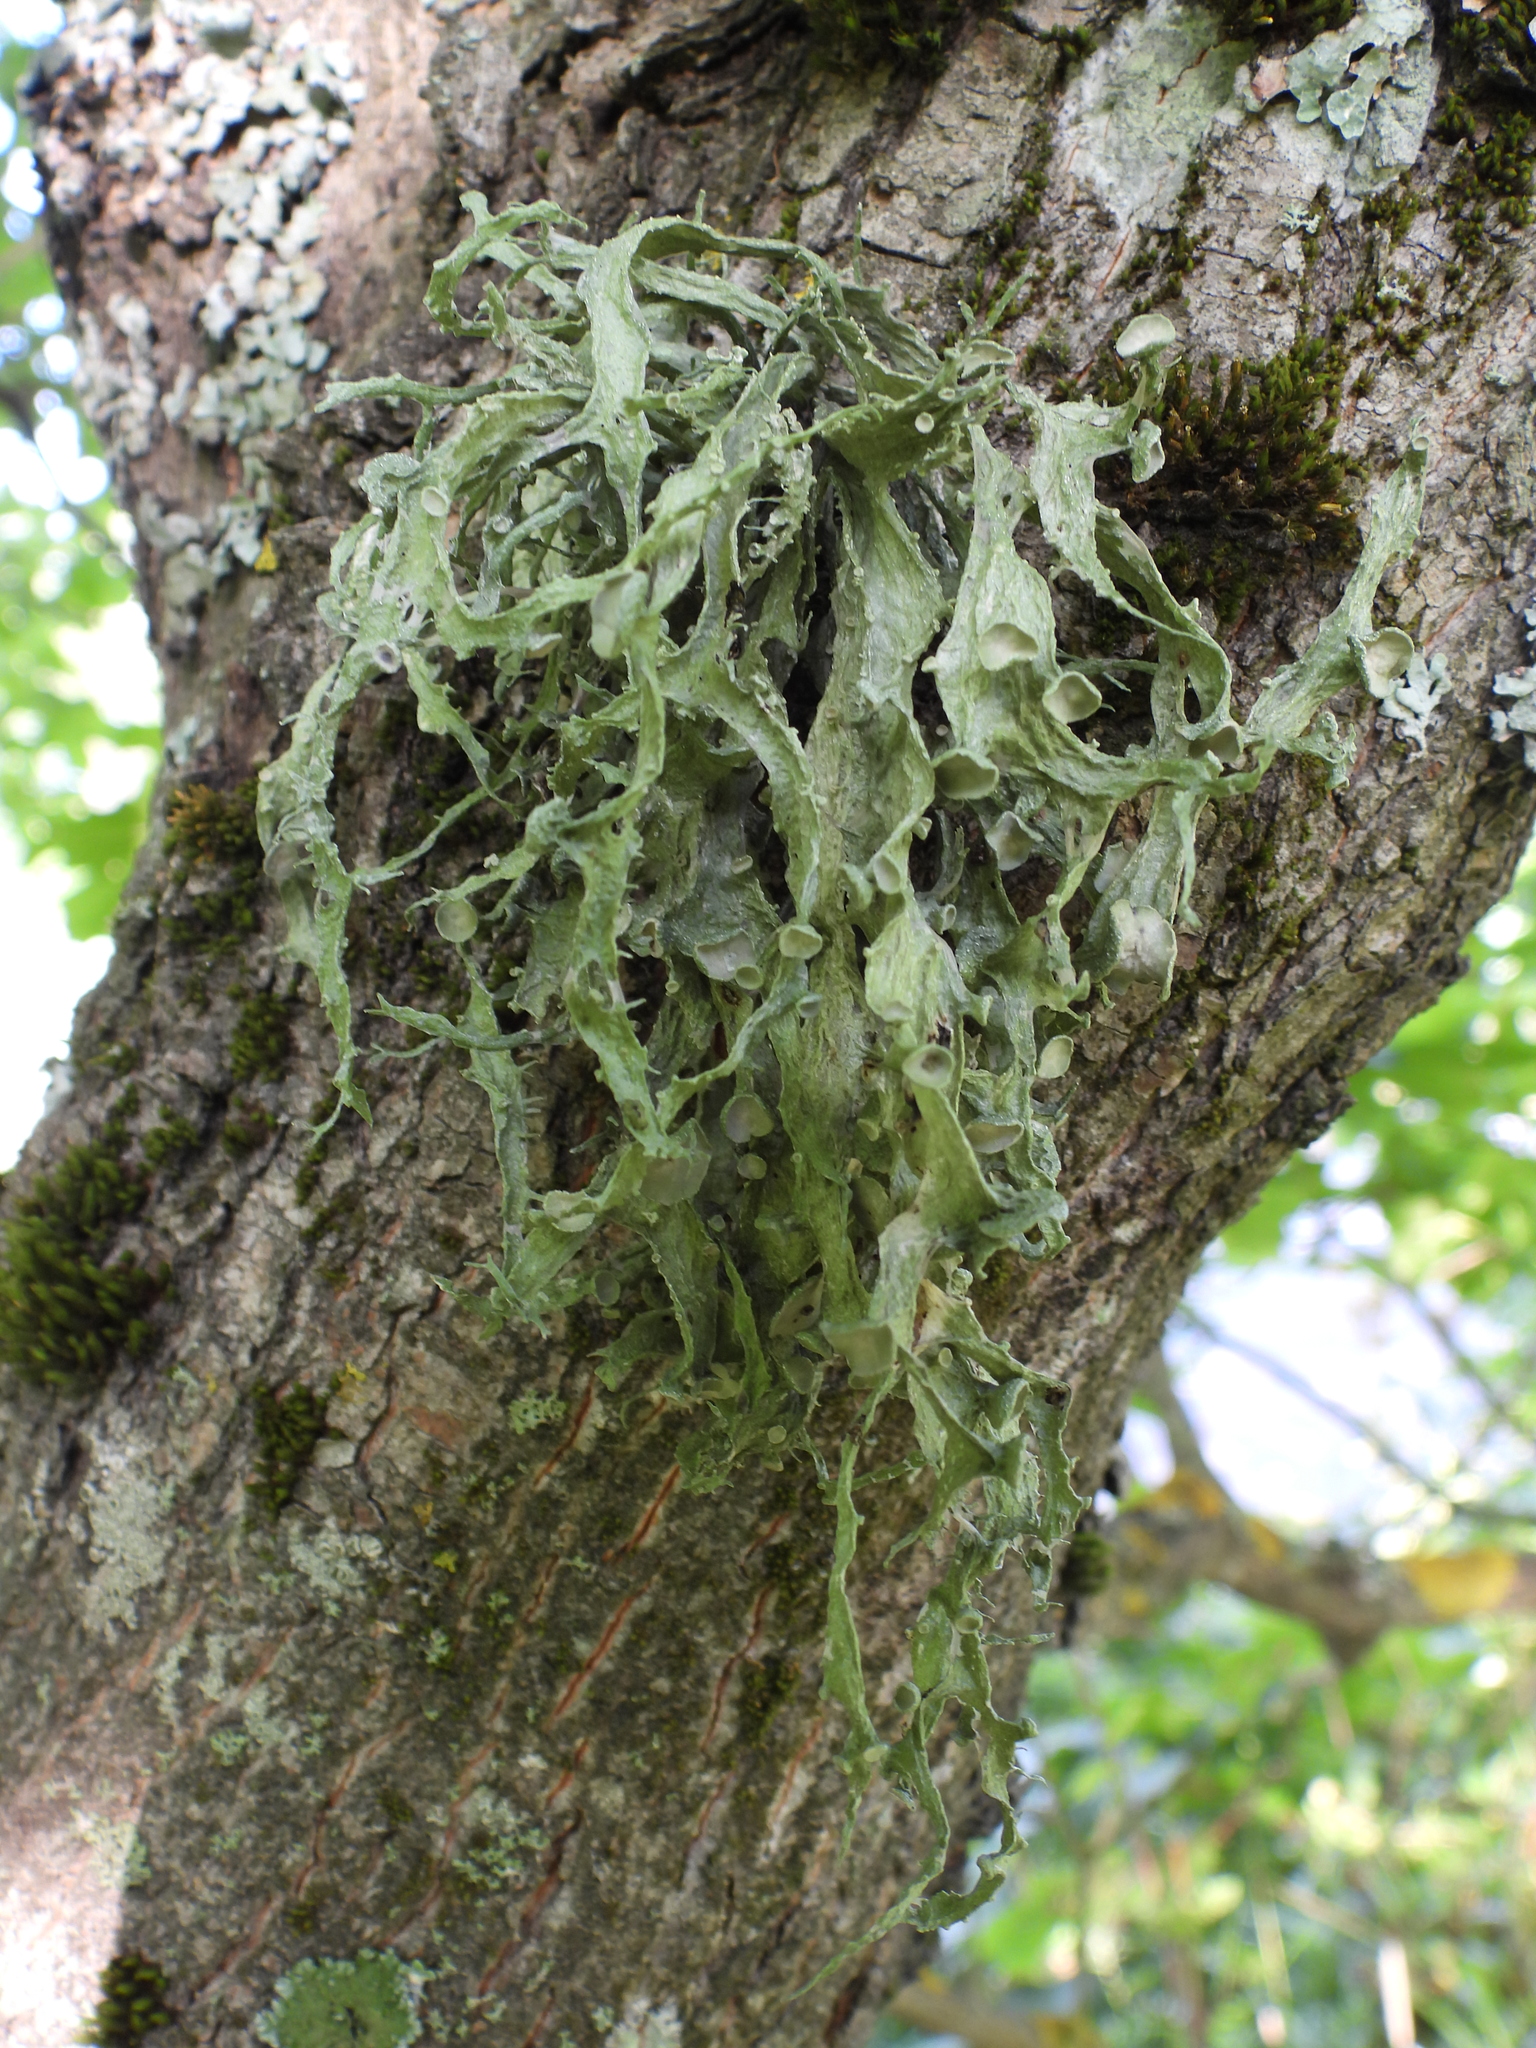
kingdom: Fungi
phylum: Ascomycota
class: Lecanoromycetes
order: Lecanorales
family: Ramalinaceae
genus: Ramalina
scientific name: Ramalina fraxinea
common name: Cartilage lichen
